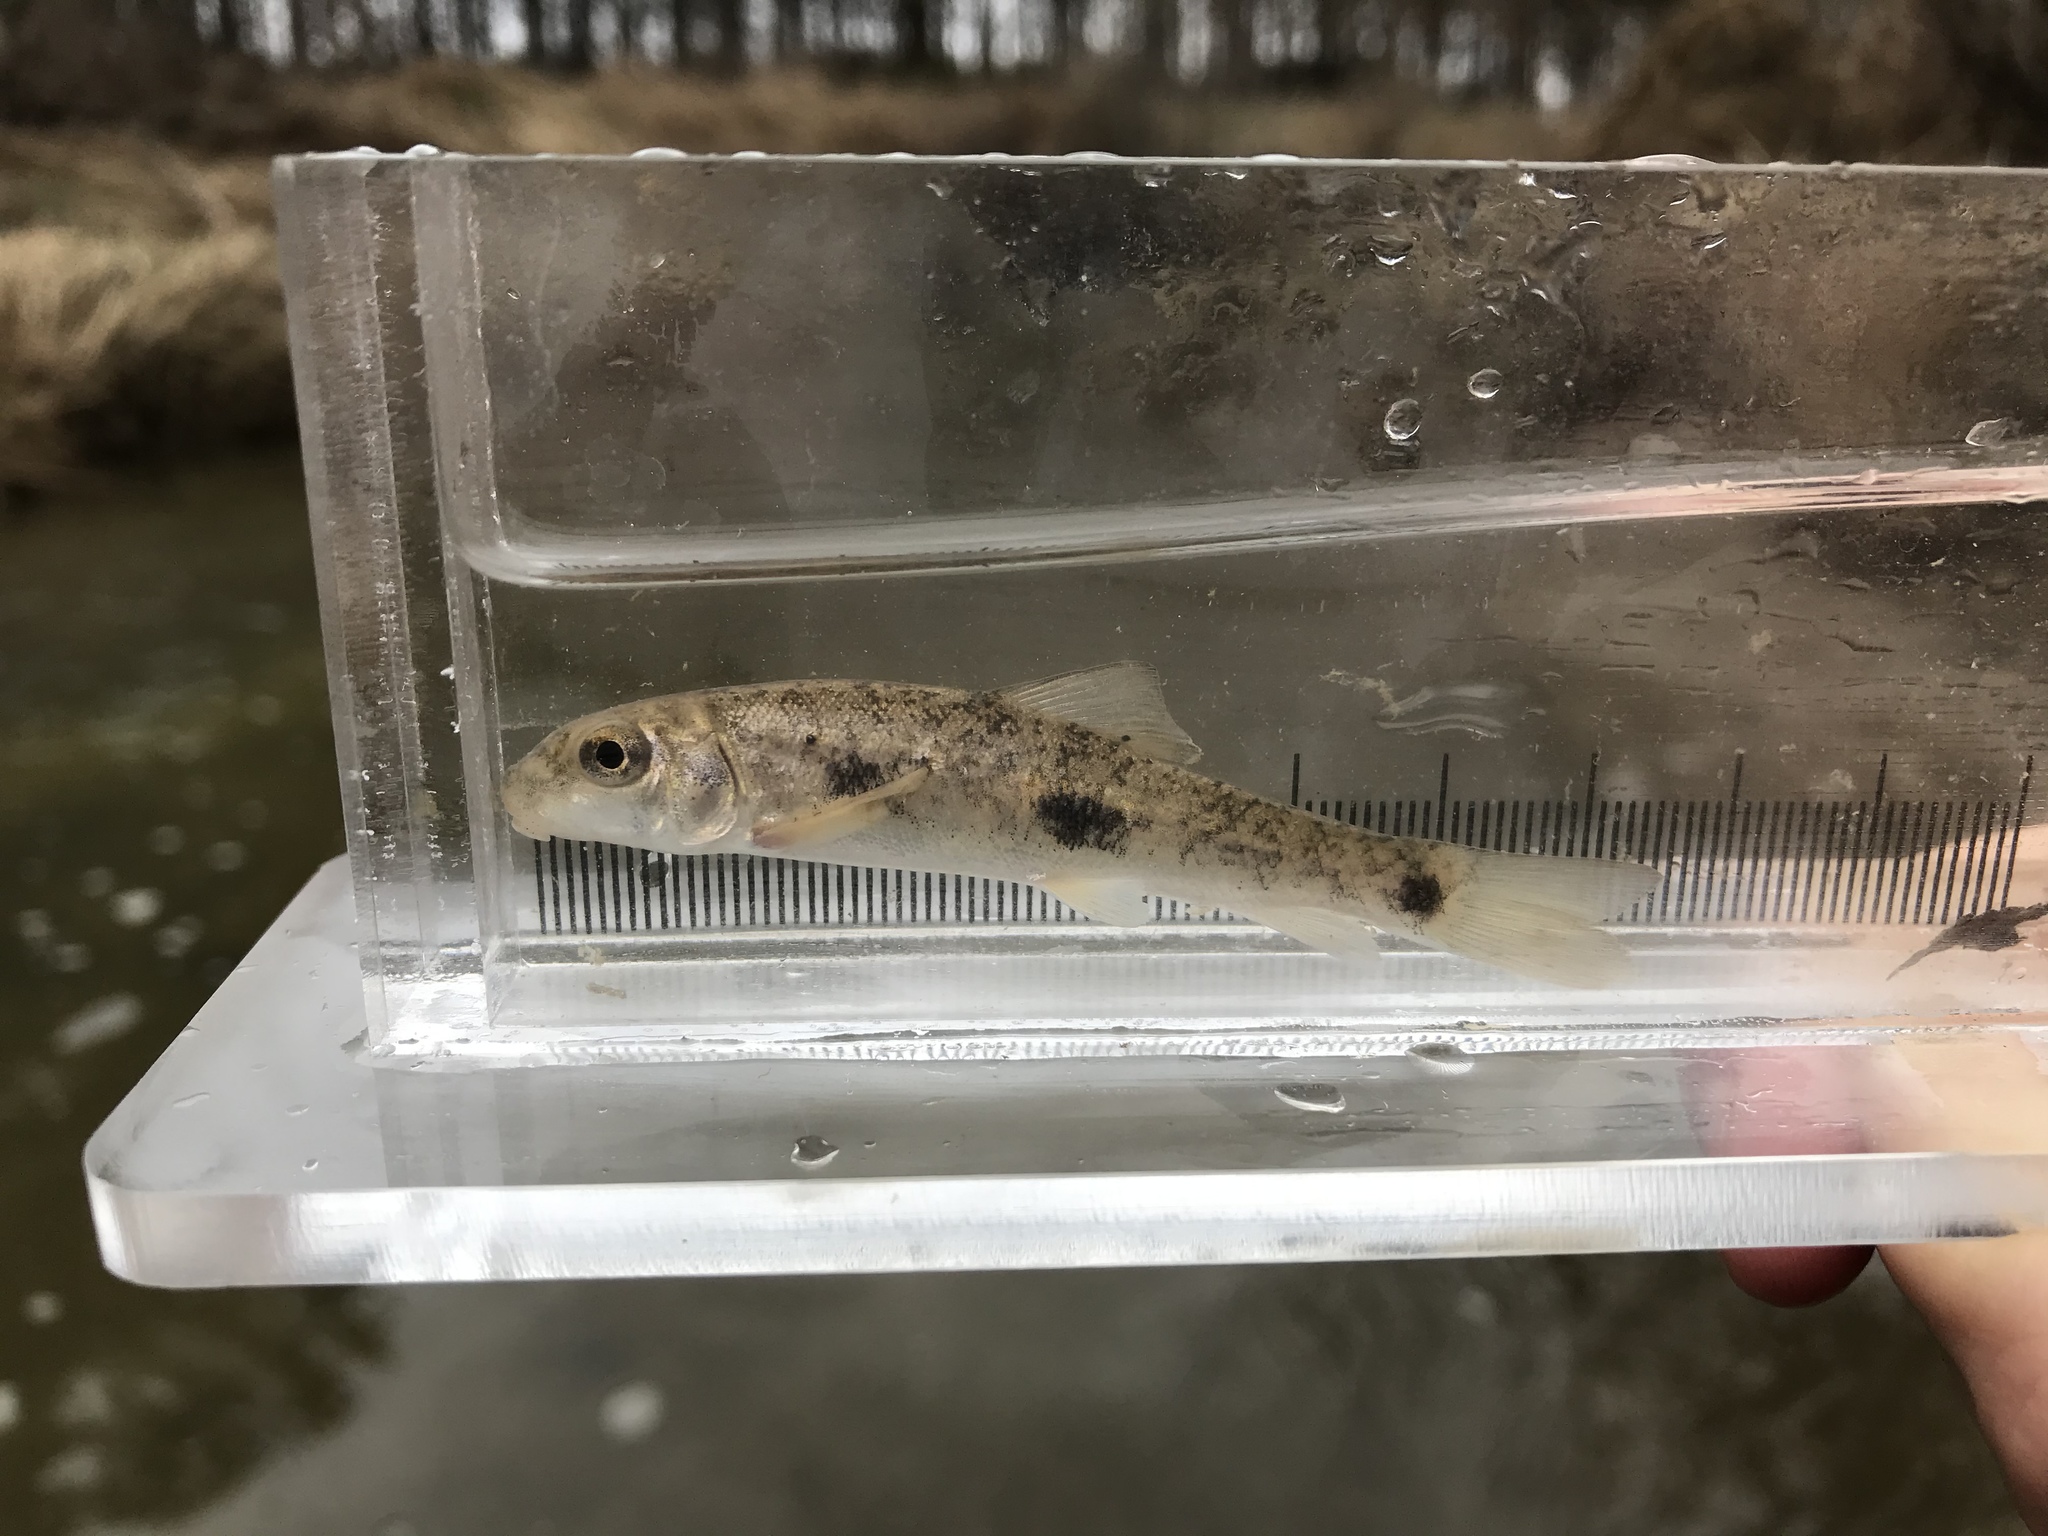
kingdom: Animalia
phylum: Chordata
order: Cypriniformes
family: Catostomidae
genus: Catostomus
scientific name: Catostomus commersonii
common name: White sucker
